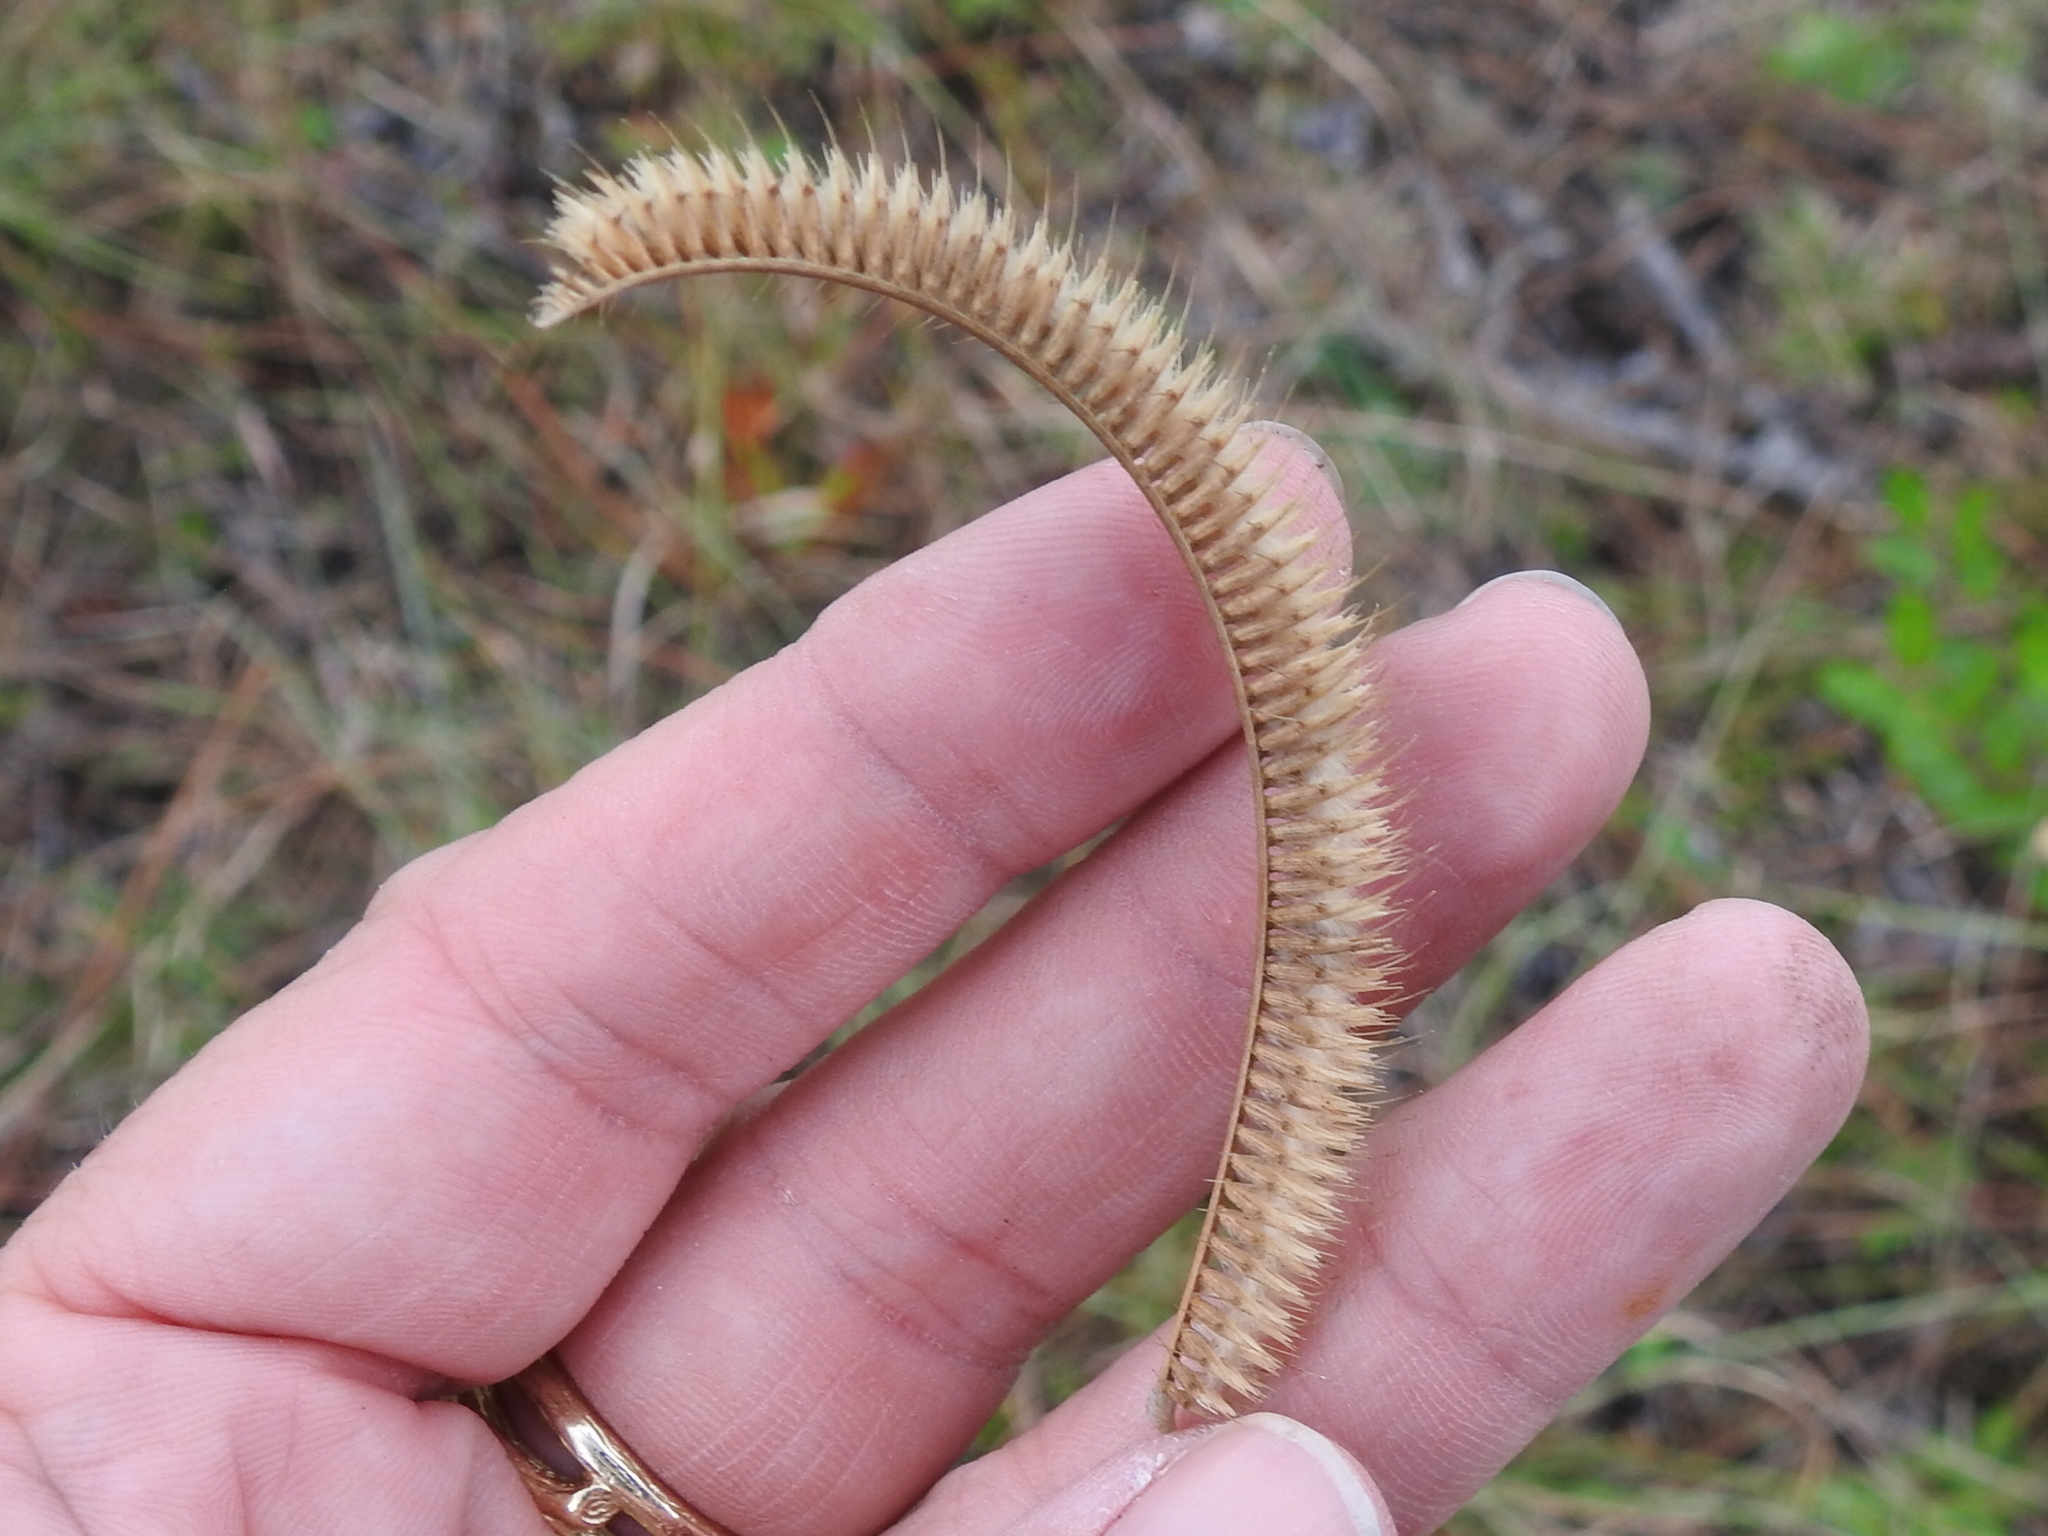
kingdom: Plantae
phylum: Tracheophyta
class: Liliopsida
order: Poales
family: Poaceae
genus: Ctenium
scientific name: Ctenium aromaticum
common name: Toothache grass
